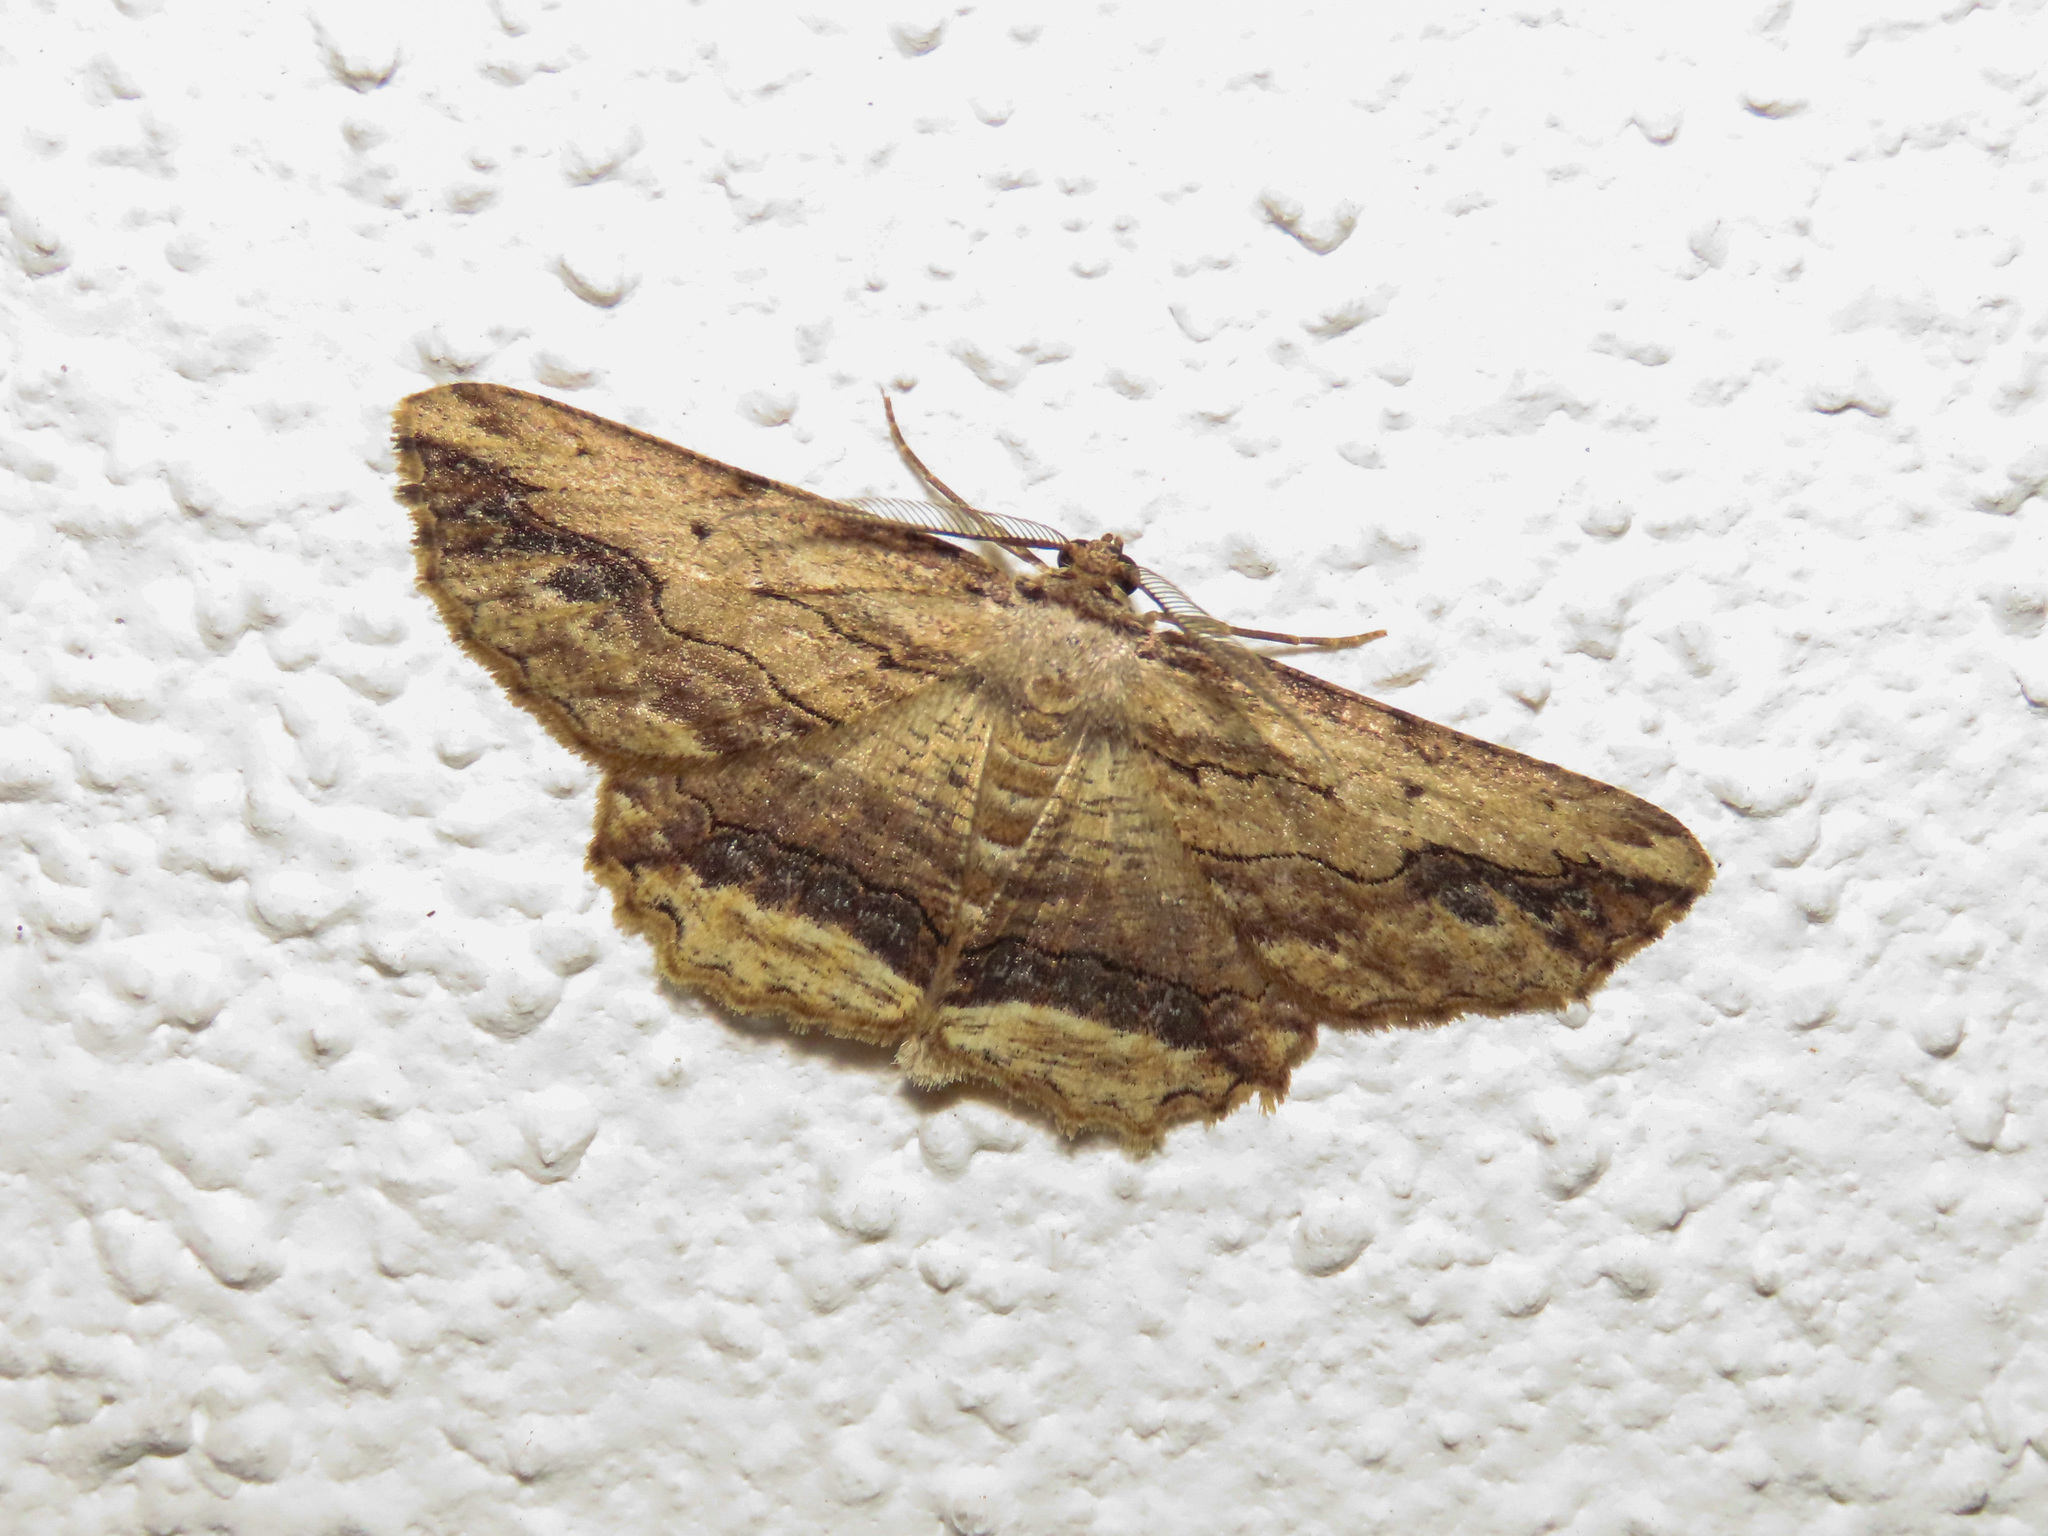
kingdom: Animalia
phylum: Arthropoda
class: Insecta
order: Lepidoptera
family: Geometridae
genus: Menophra
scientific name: Menophra abruptaria
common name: Waved umber
